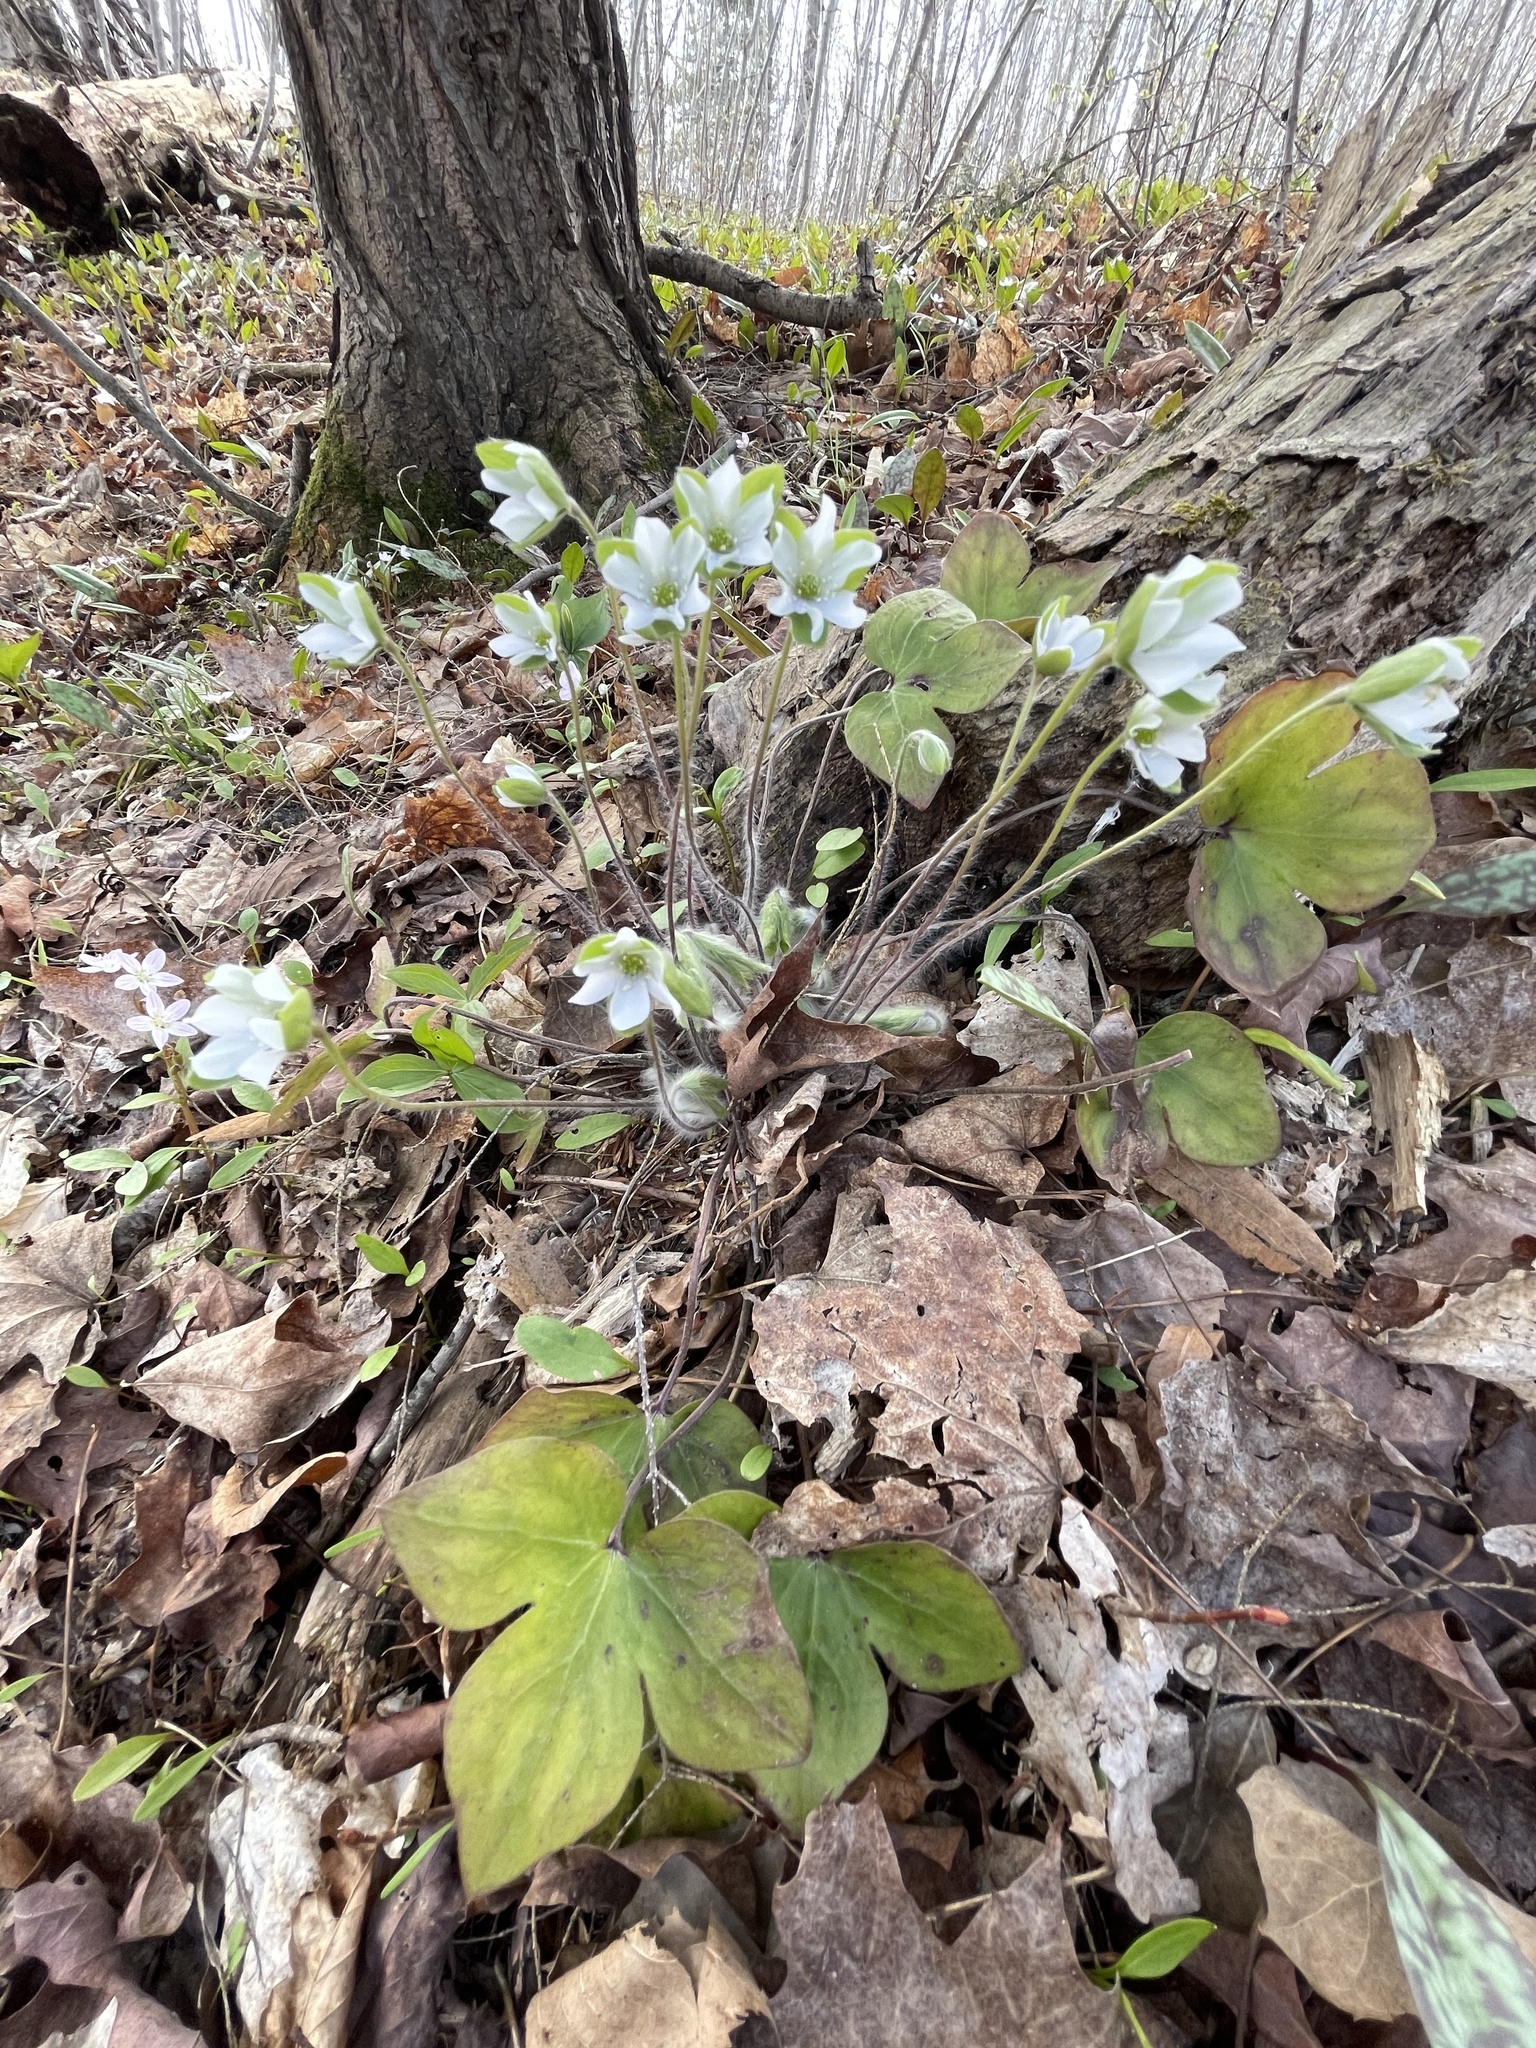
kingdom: Plantae
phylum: Tracheophyta
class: Magnoliopsida
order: Ranunculales
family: Ranunculaceae
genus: Hepatica
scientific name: Hepatica acutiloba
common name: Sharp-lobed hepatica
